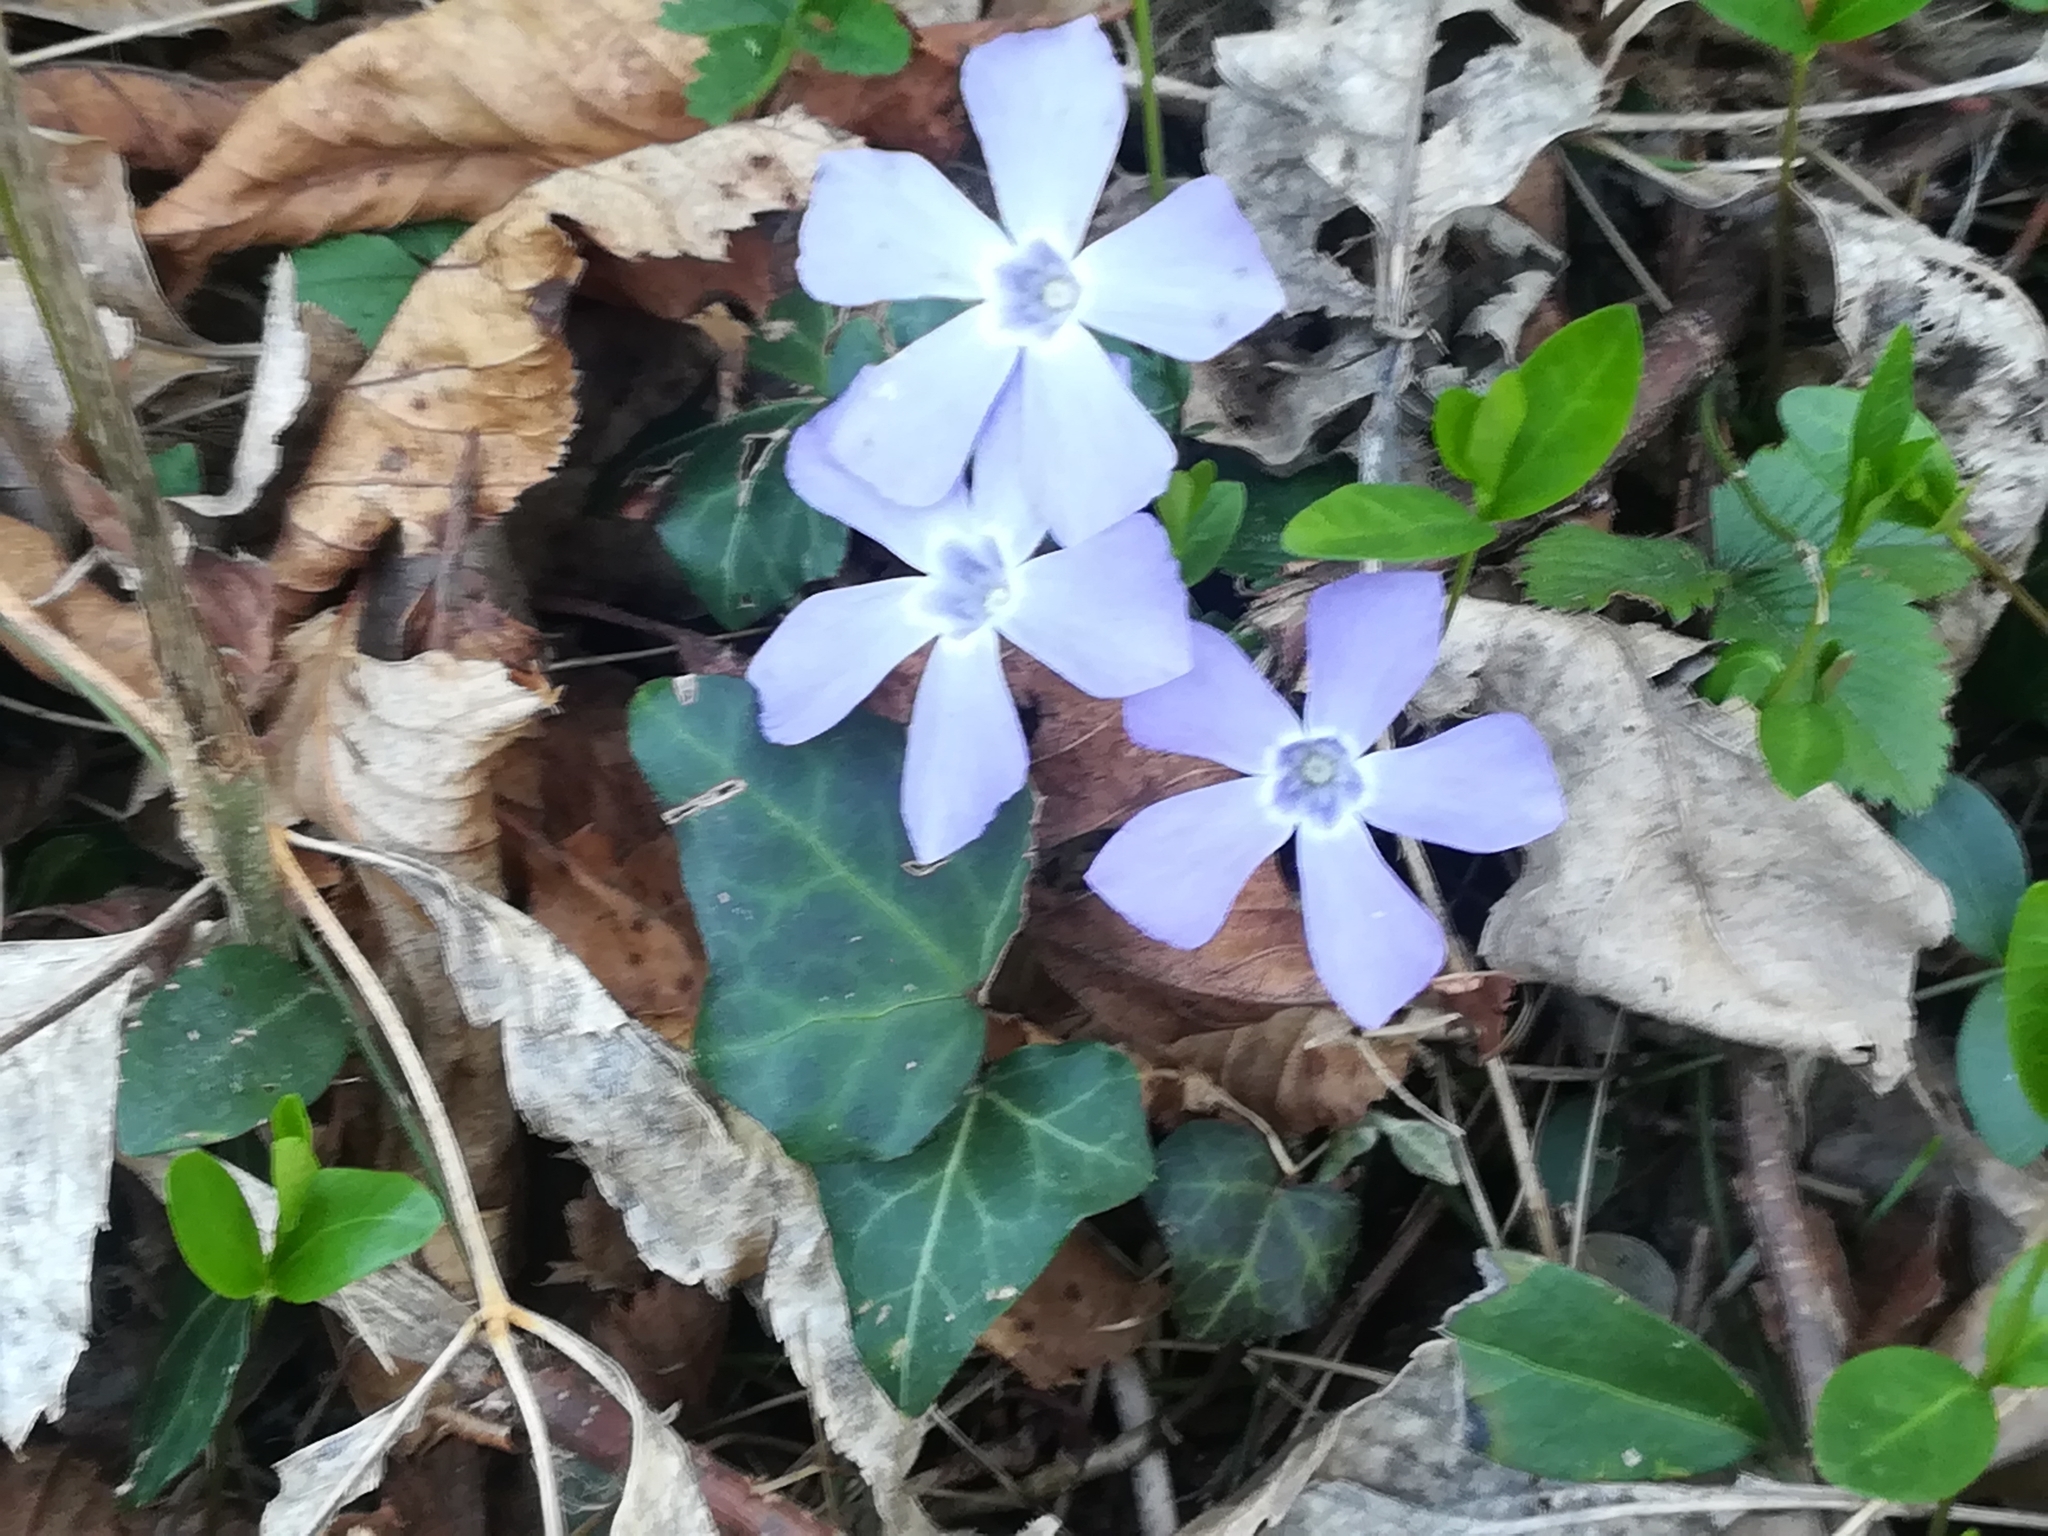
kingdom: Plantae
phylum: Tracheophyta
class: Magnoliopsida
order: Gentianales
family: Apocynaceae
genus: Vinca
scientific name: Vinca minor
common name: Lesser periwinkle
